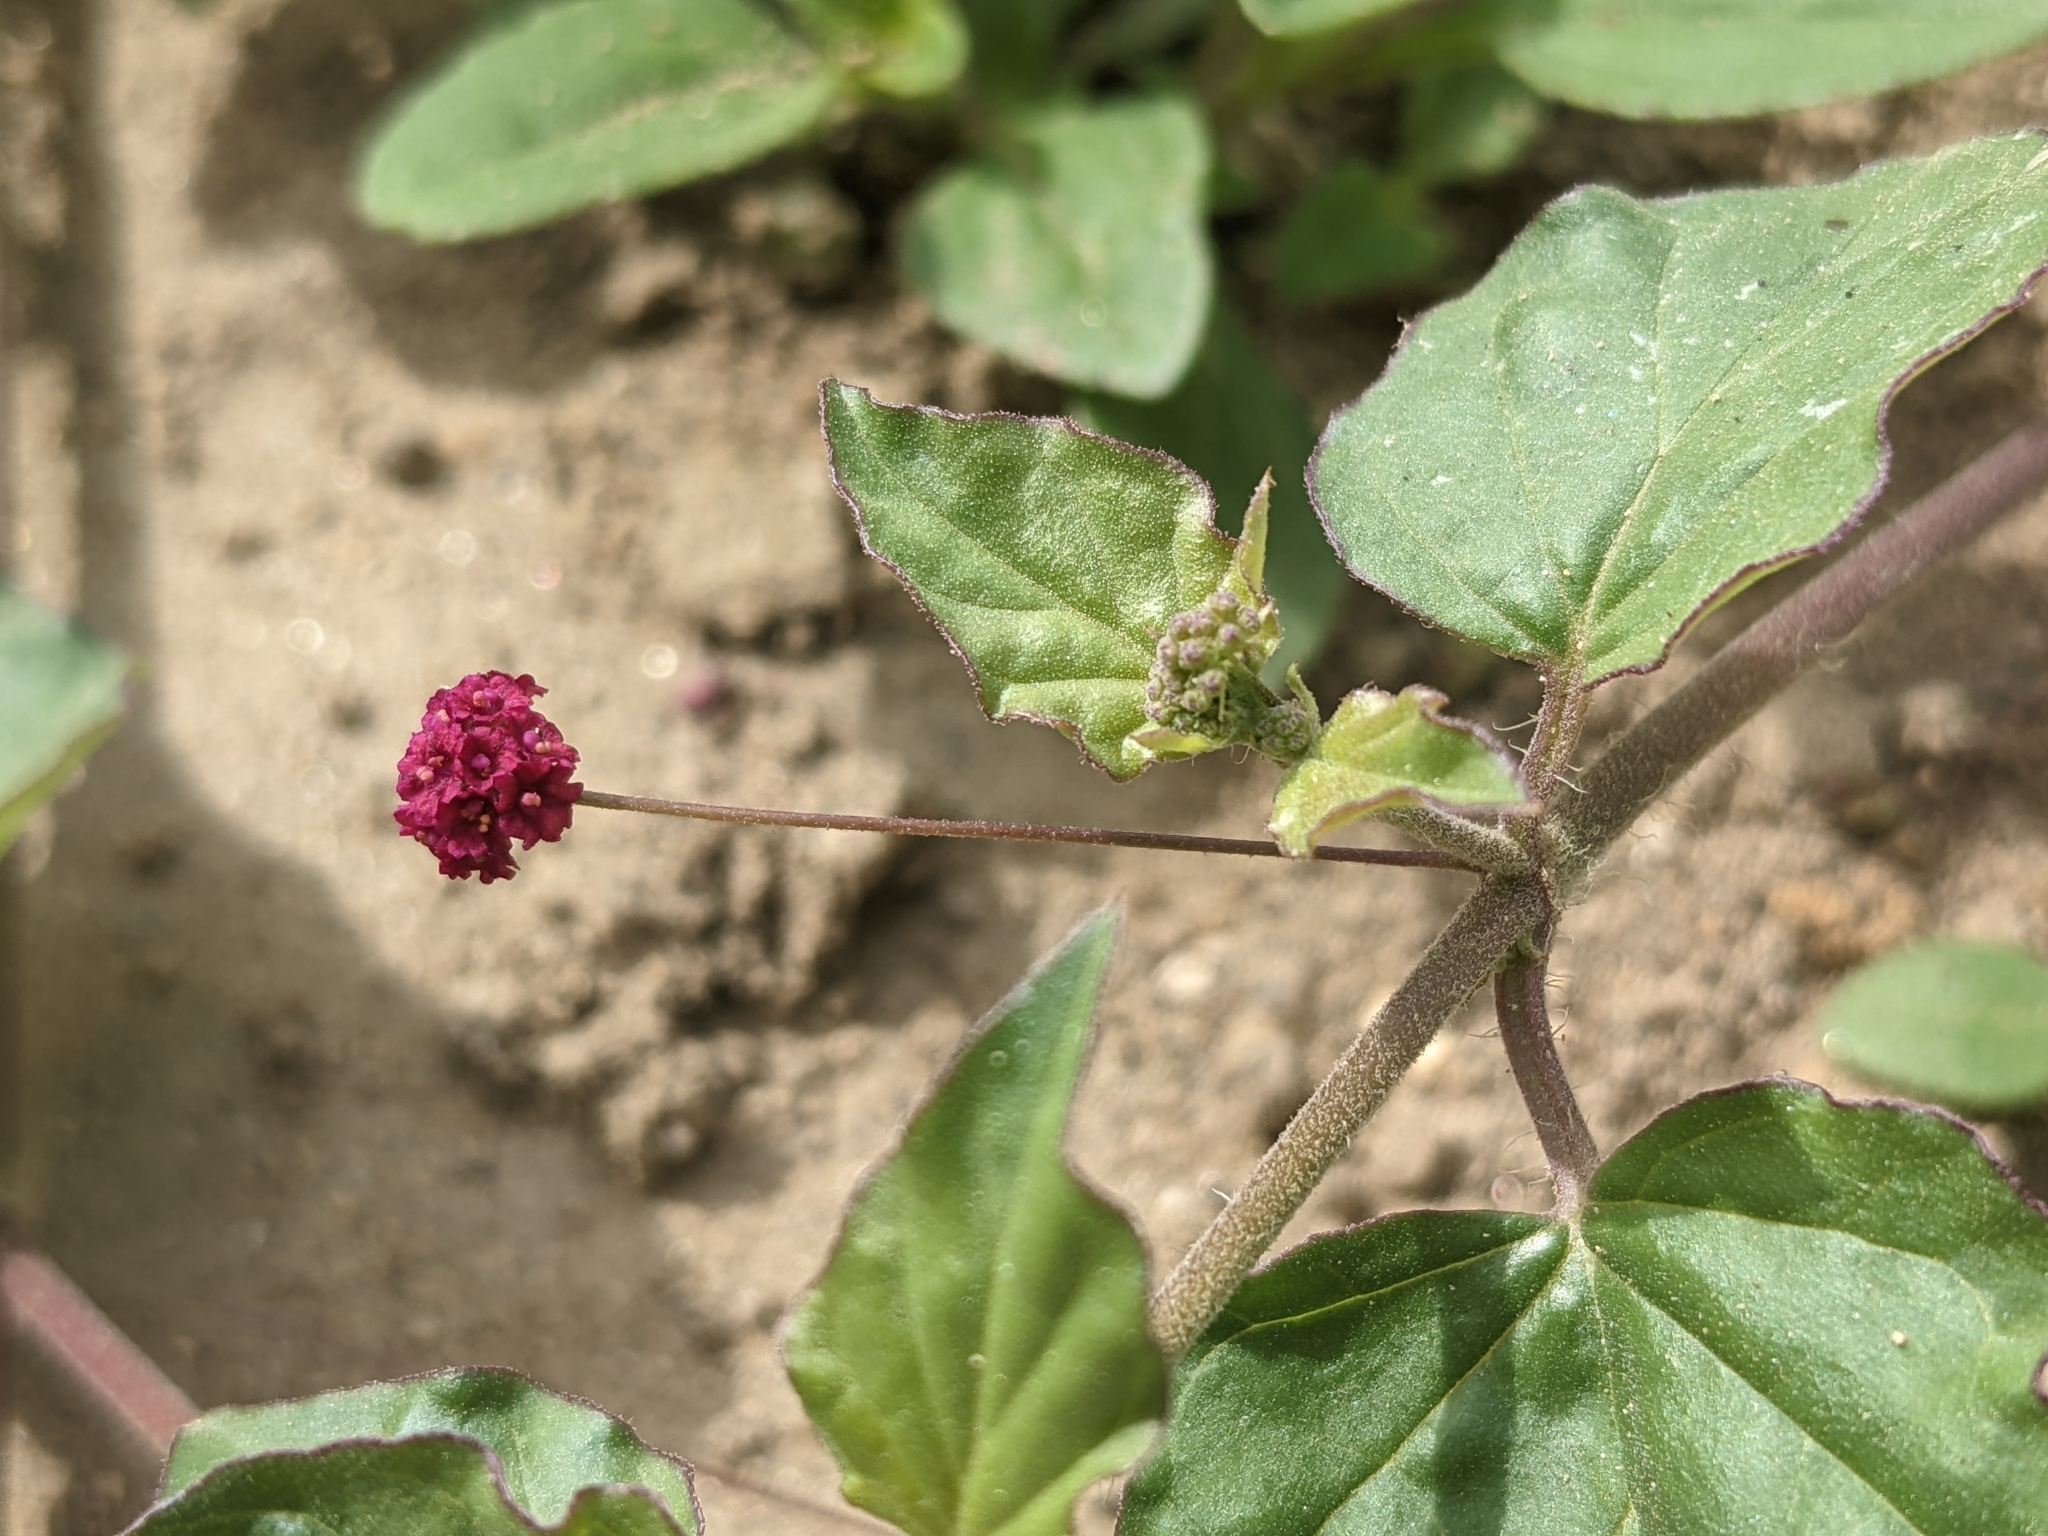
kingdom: Plantae
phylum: Tracheophyta
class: Magnoliopsida
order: Caryophyllales
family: Nyctaginaceae
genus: Boerhavia
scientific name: Boerhavia coccinea
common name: Scarlet spiderling
